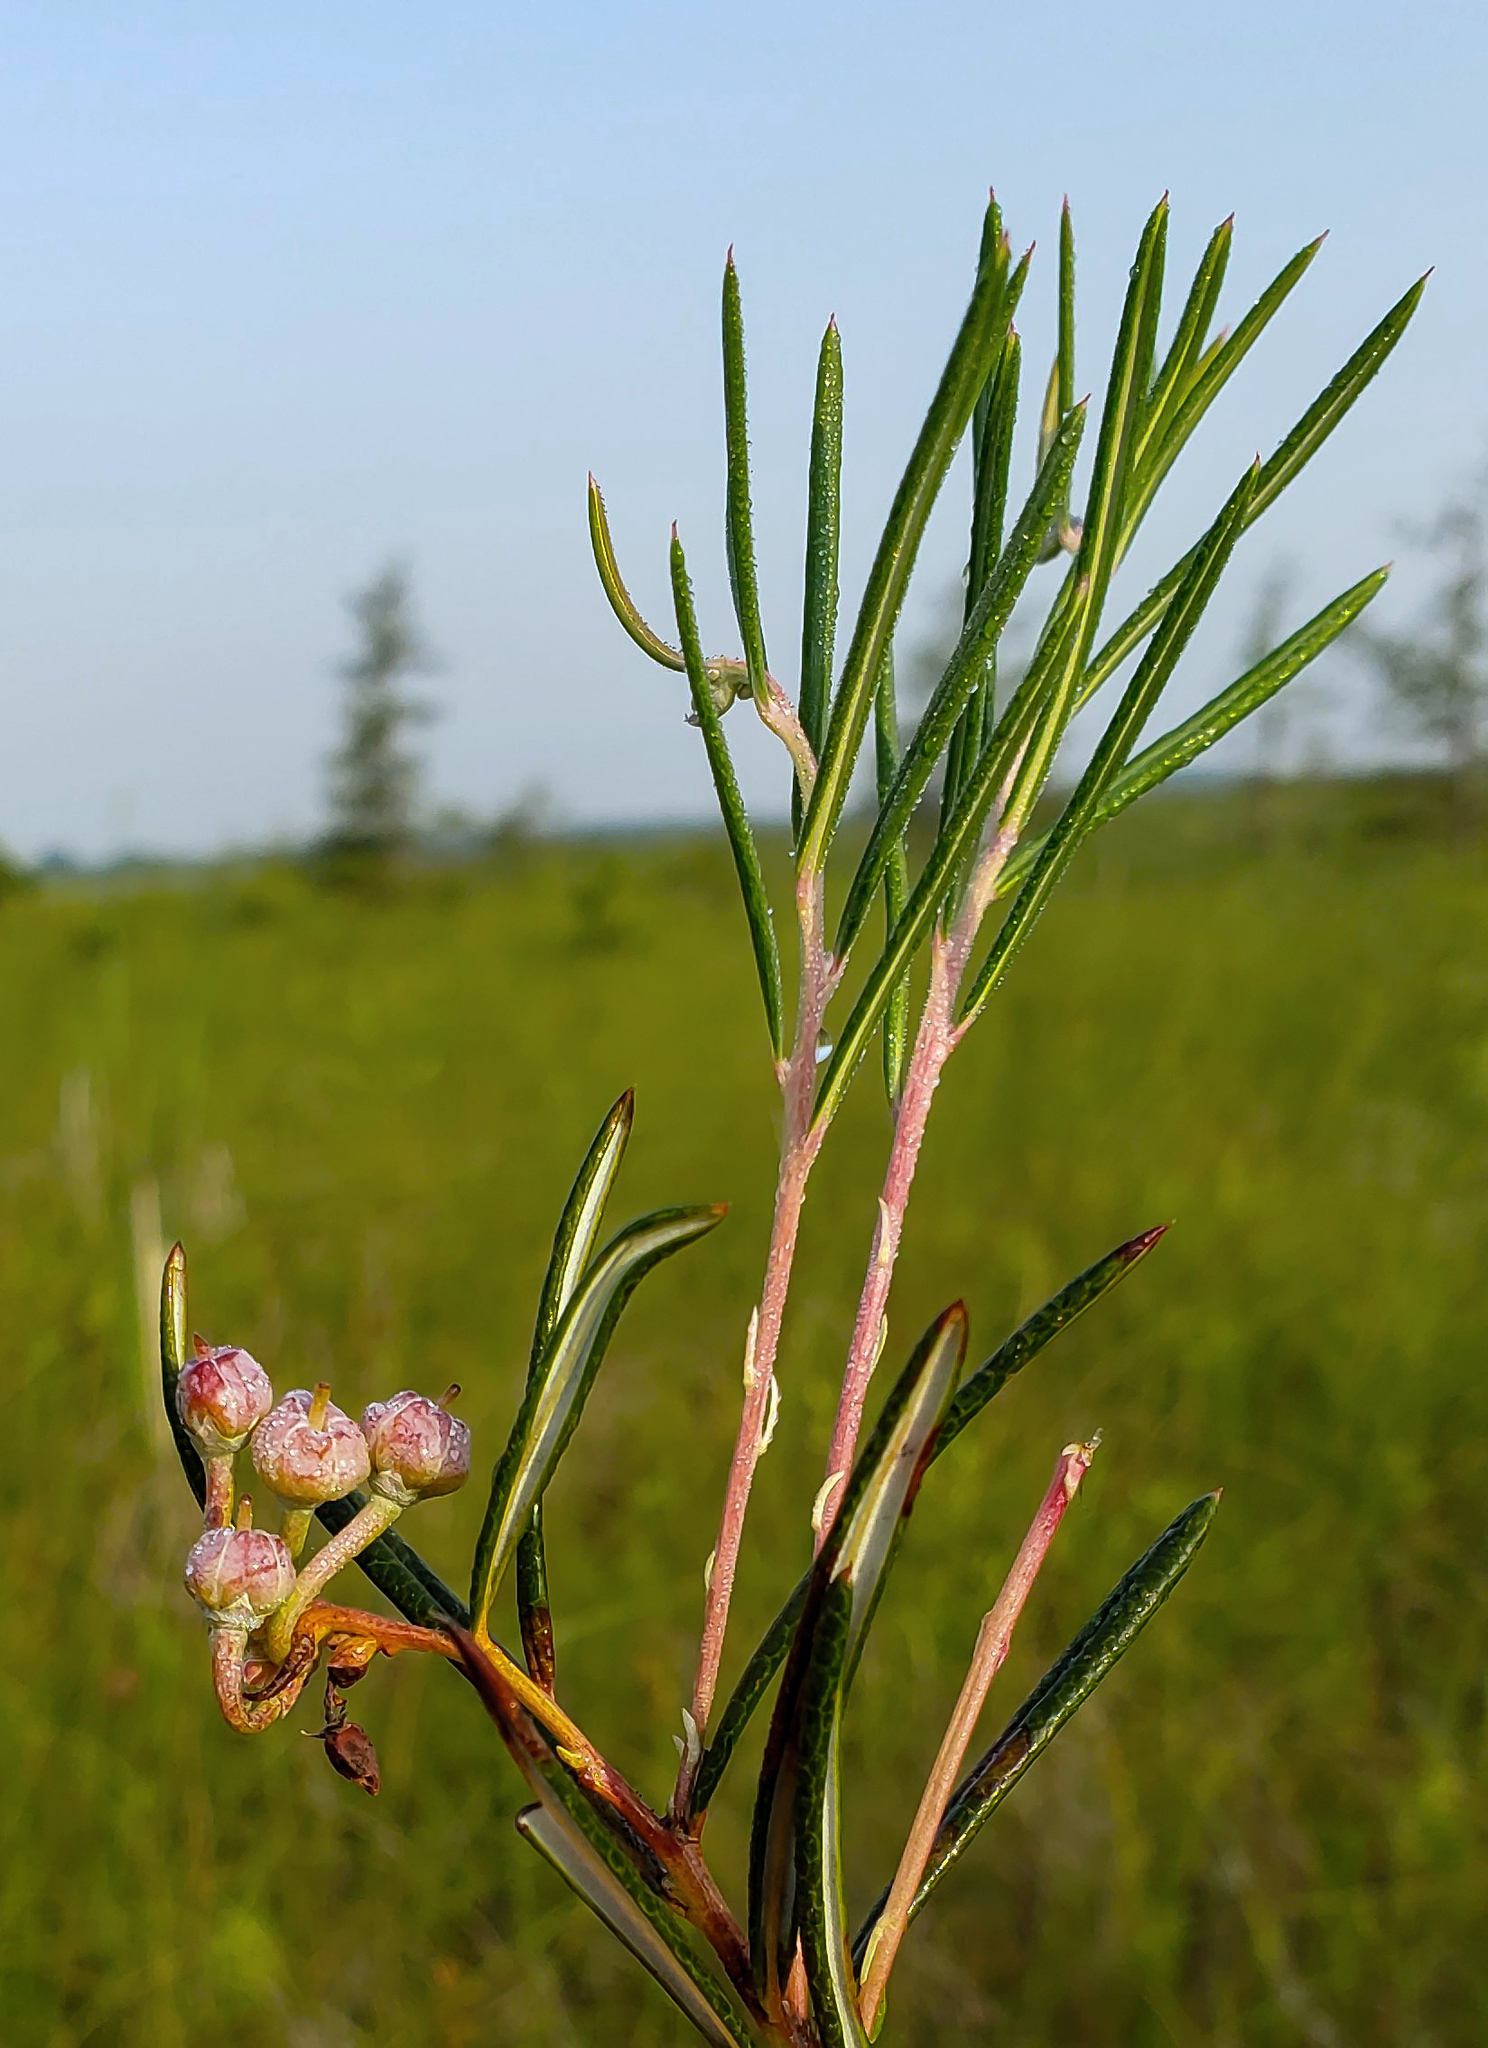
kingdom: Plantae
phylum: Tracheophyta
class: Magnoliopsida
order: Ericales
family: Ericaceae
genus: Andromeda
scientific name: Andromeda polifolia
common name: Bog-rosemary
